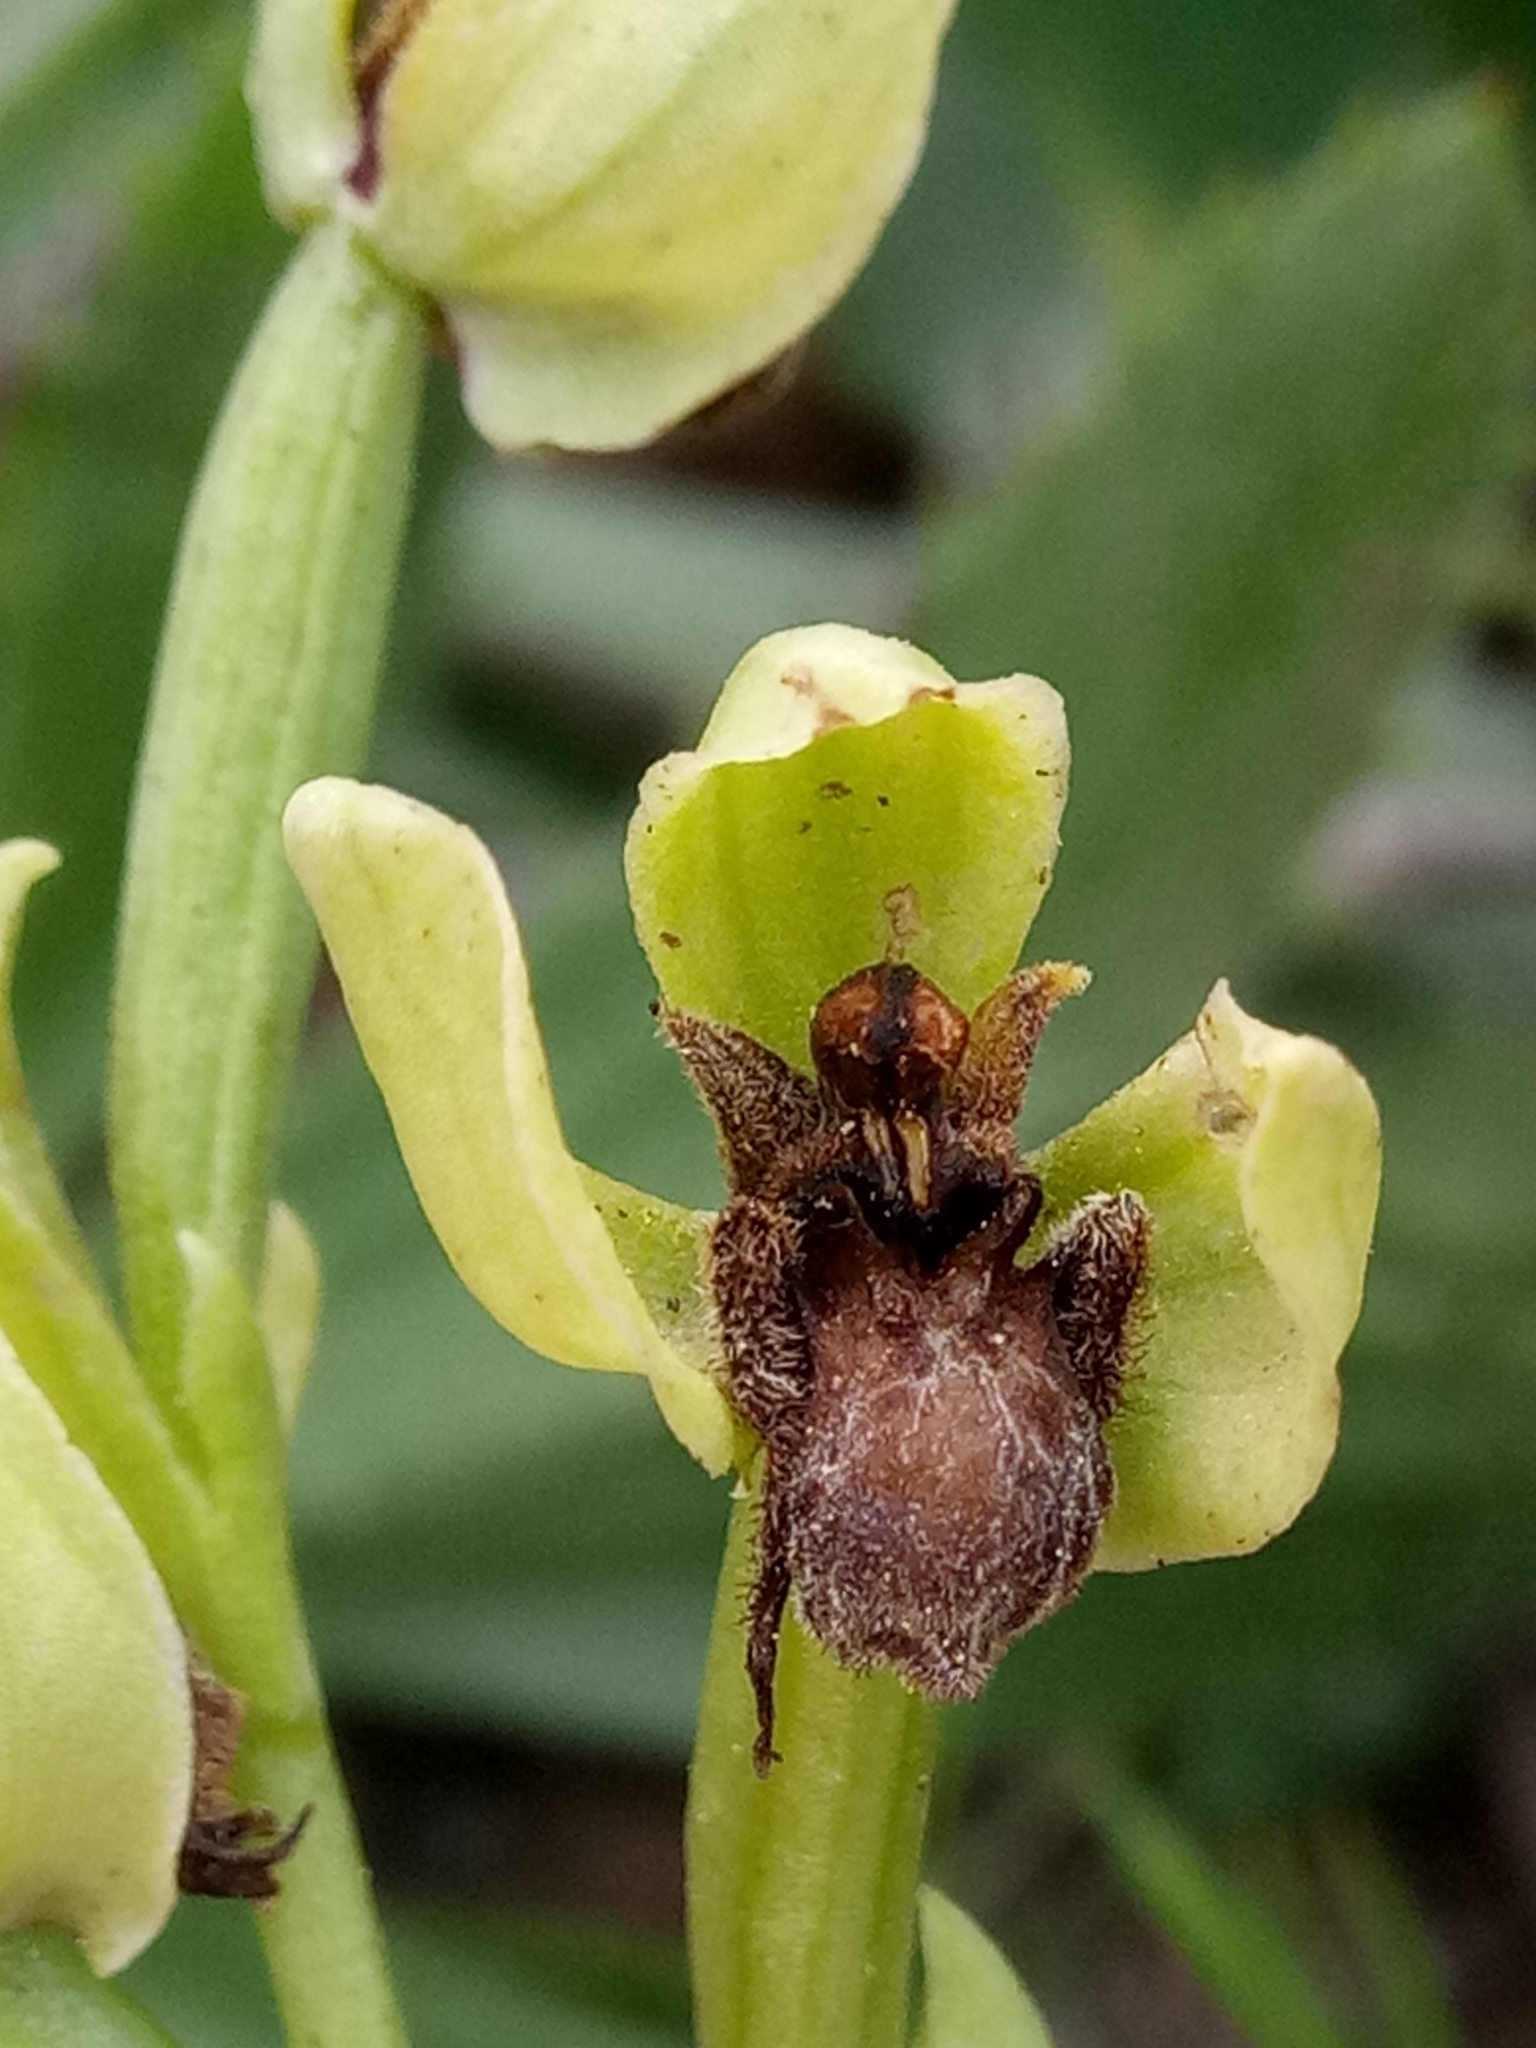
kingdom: Plantae
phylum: Tracheophyta
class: Liliopsida
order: Asparagales
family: Orchidaceae
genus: Ophrys
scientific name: Ophrys bombyliflora
